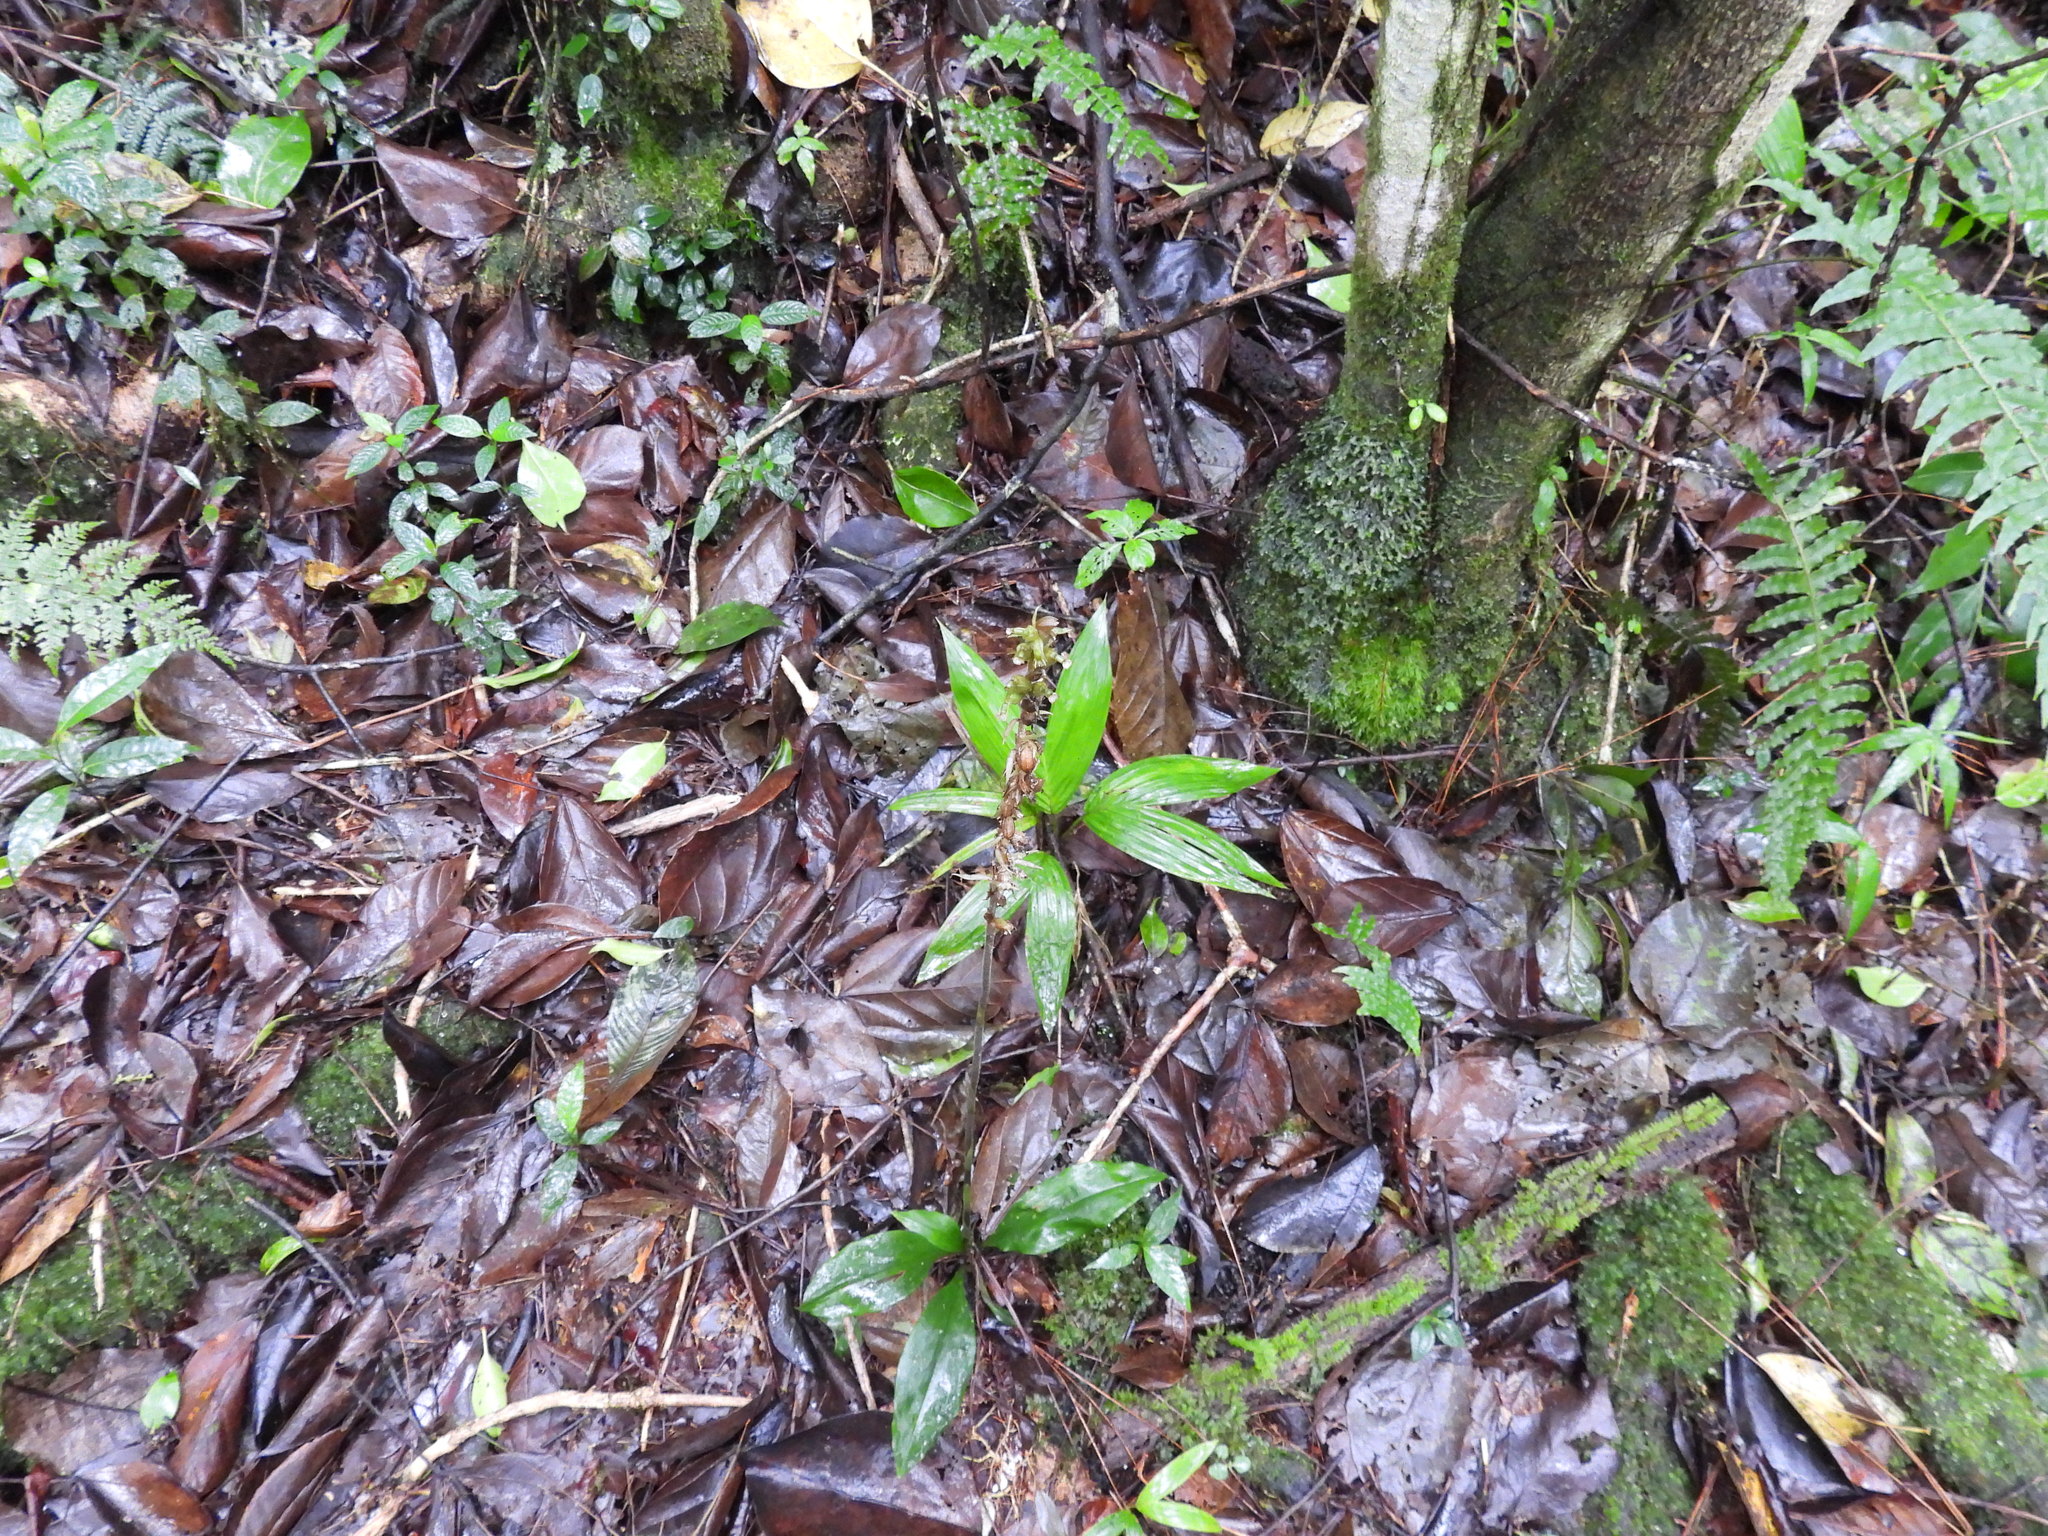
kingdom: Plantae
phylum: Tracheophyta
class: Liliopsida
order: Asparagales
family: Orchidaceae
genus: Cyclopogon
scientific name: Cyclopogon elatus
